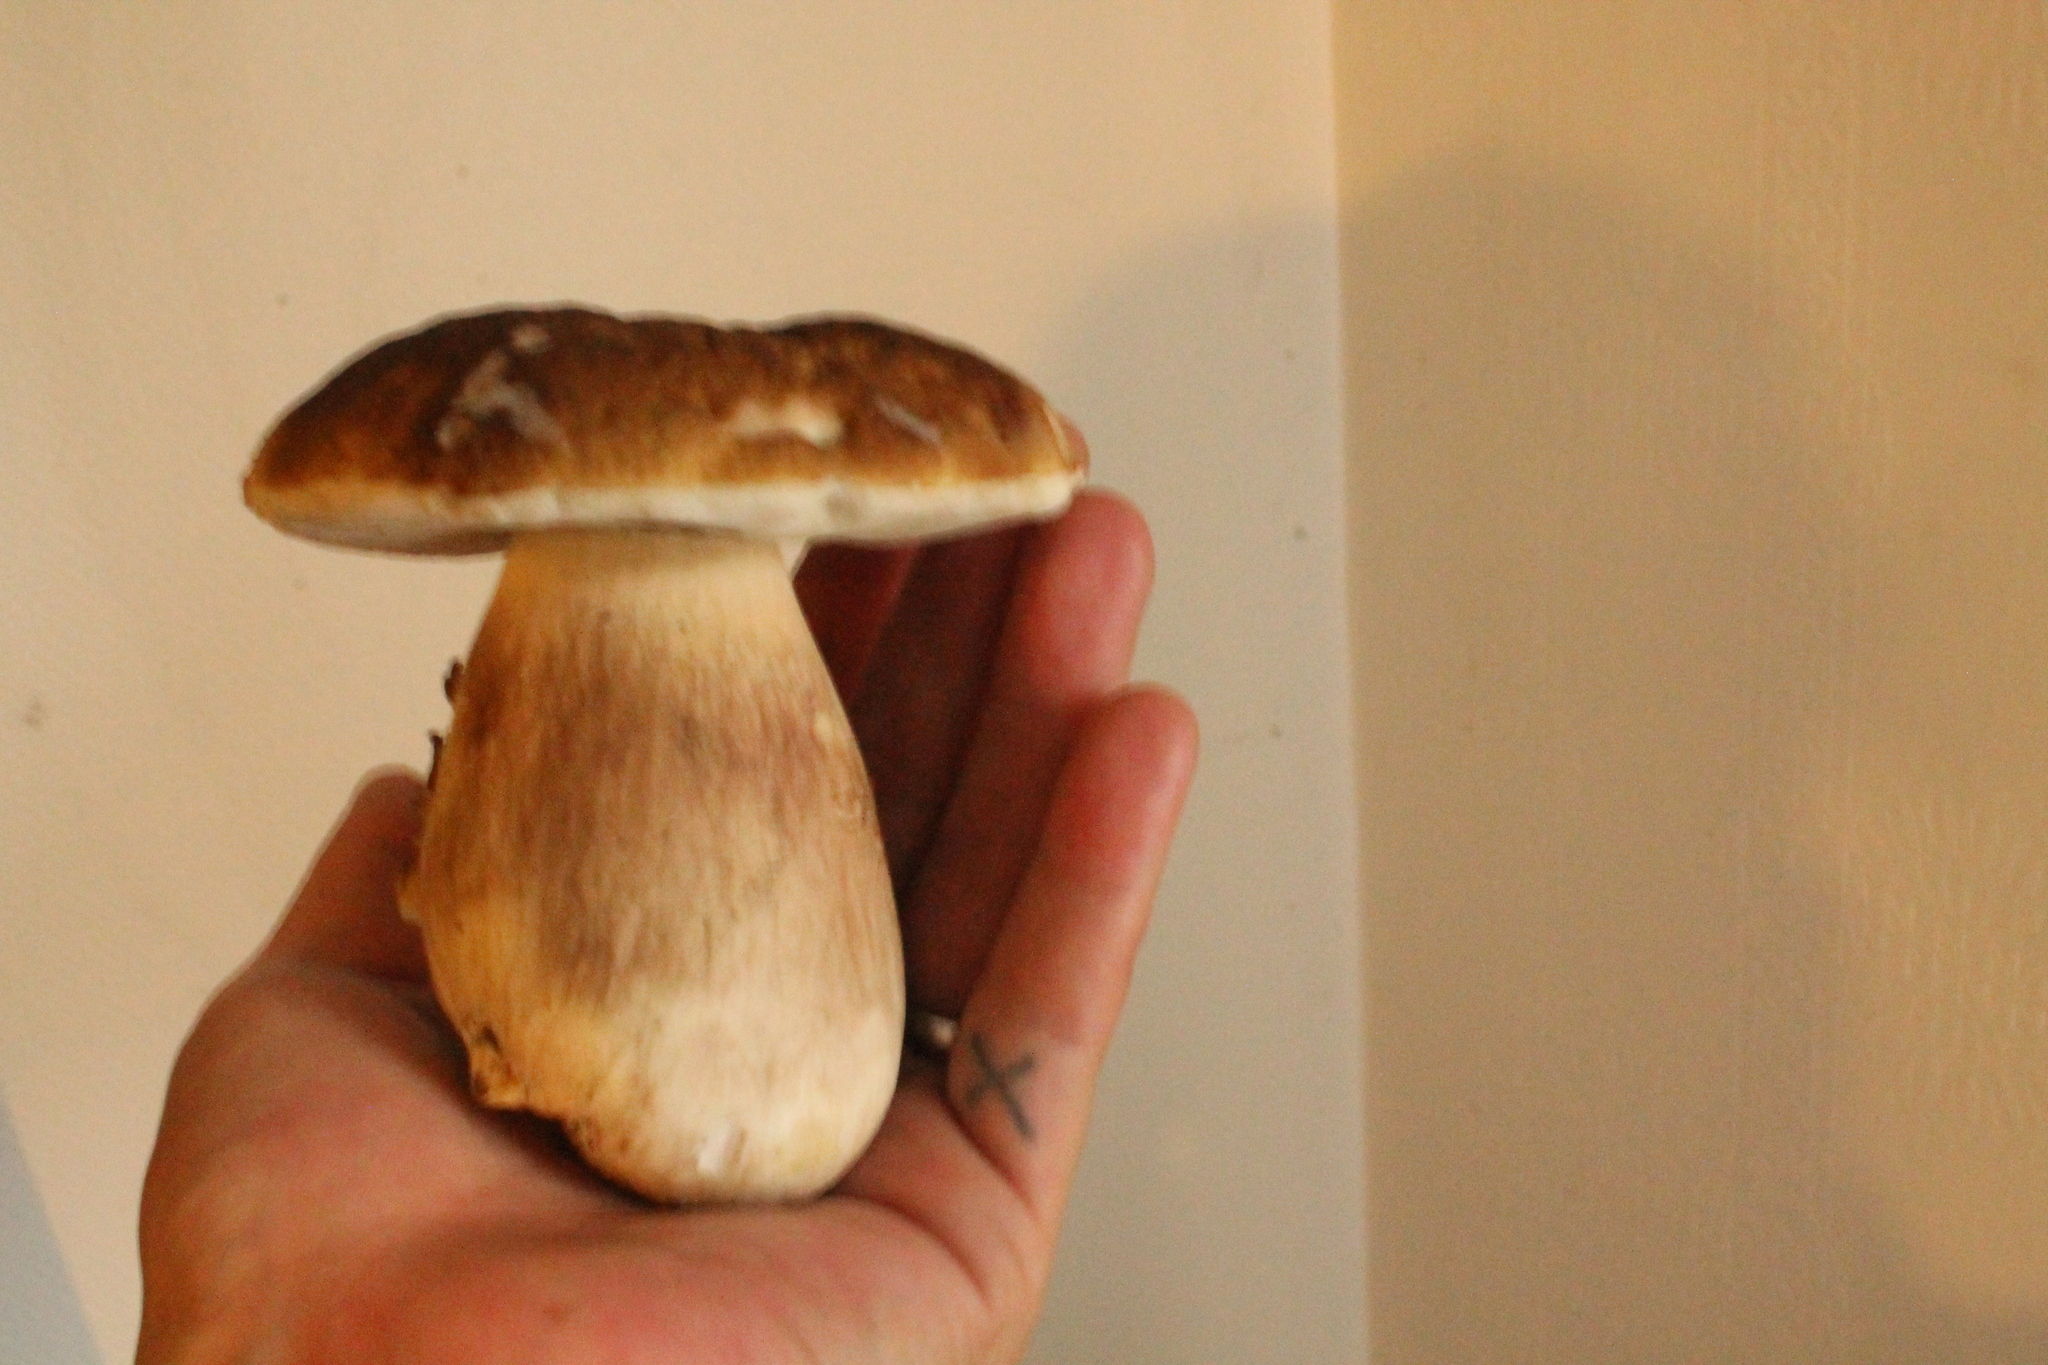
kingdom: Fungi
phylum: Basidiomycota
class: Agaricomycetes
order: Boletales
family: Boletaceae
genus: Boletus
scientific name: Boletus edulis
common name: Cep
